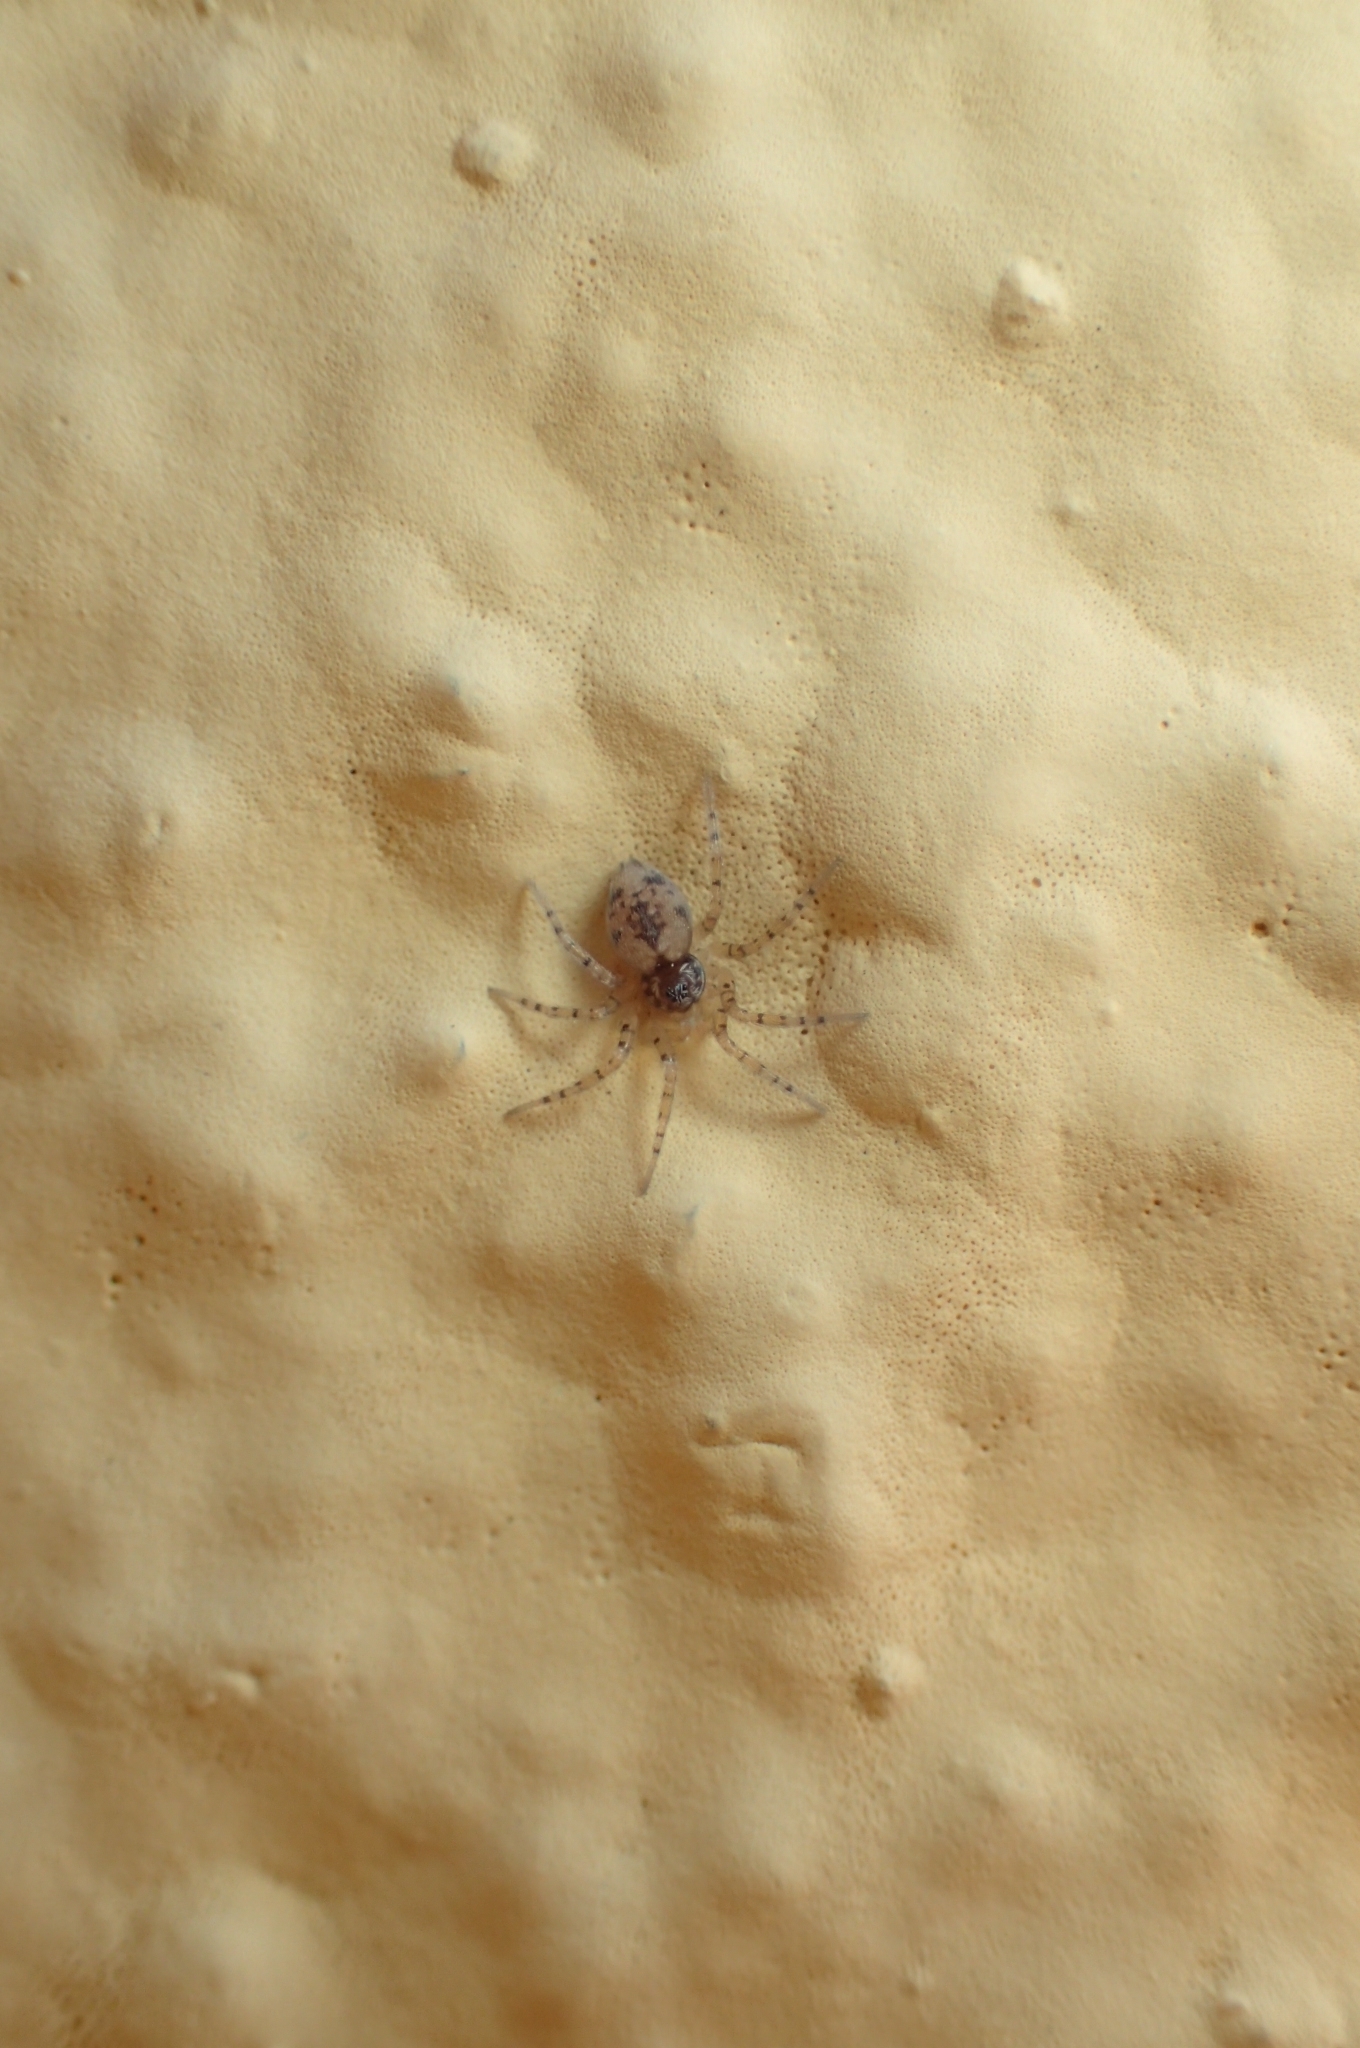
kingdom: Animalia
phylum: Arthropoda
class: Arachnida
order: Araneae
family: Oecobiidae
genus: Oecobius
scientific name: Oecobius maculatus
